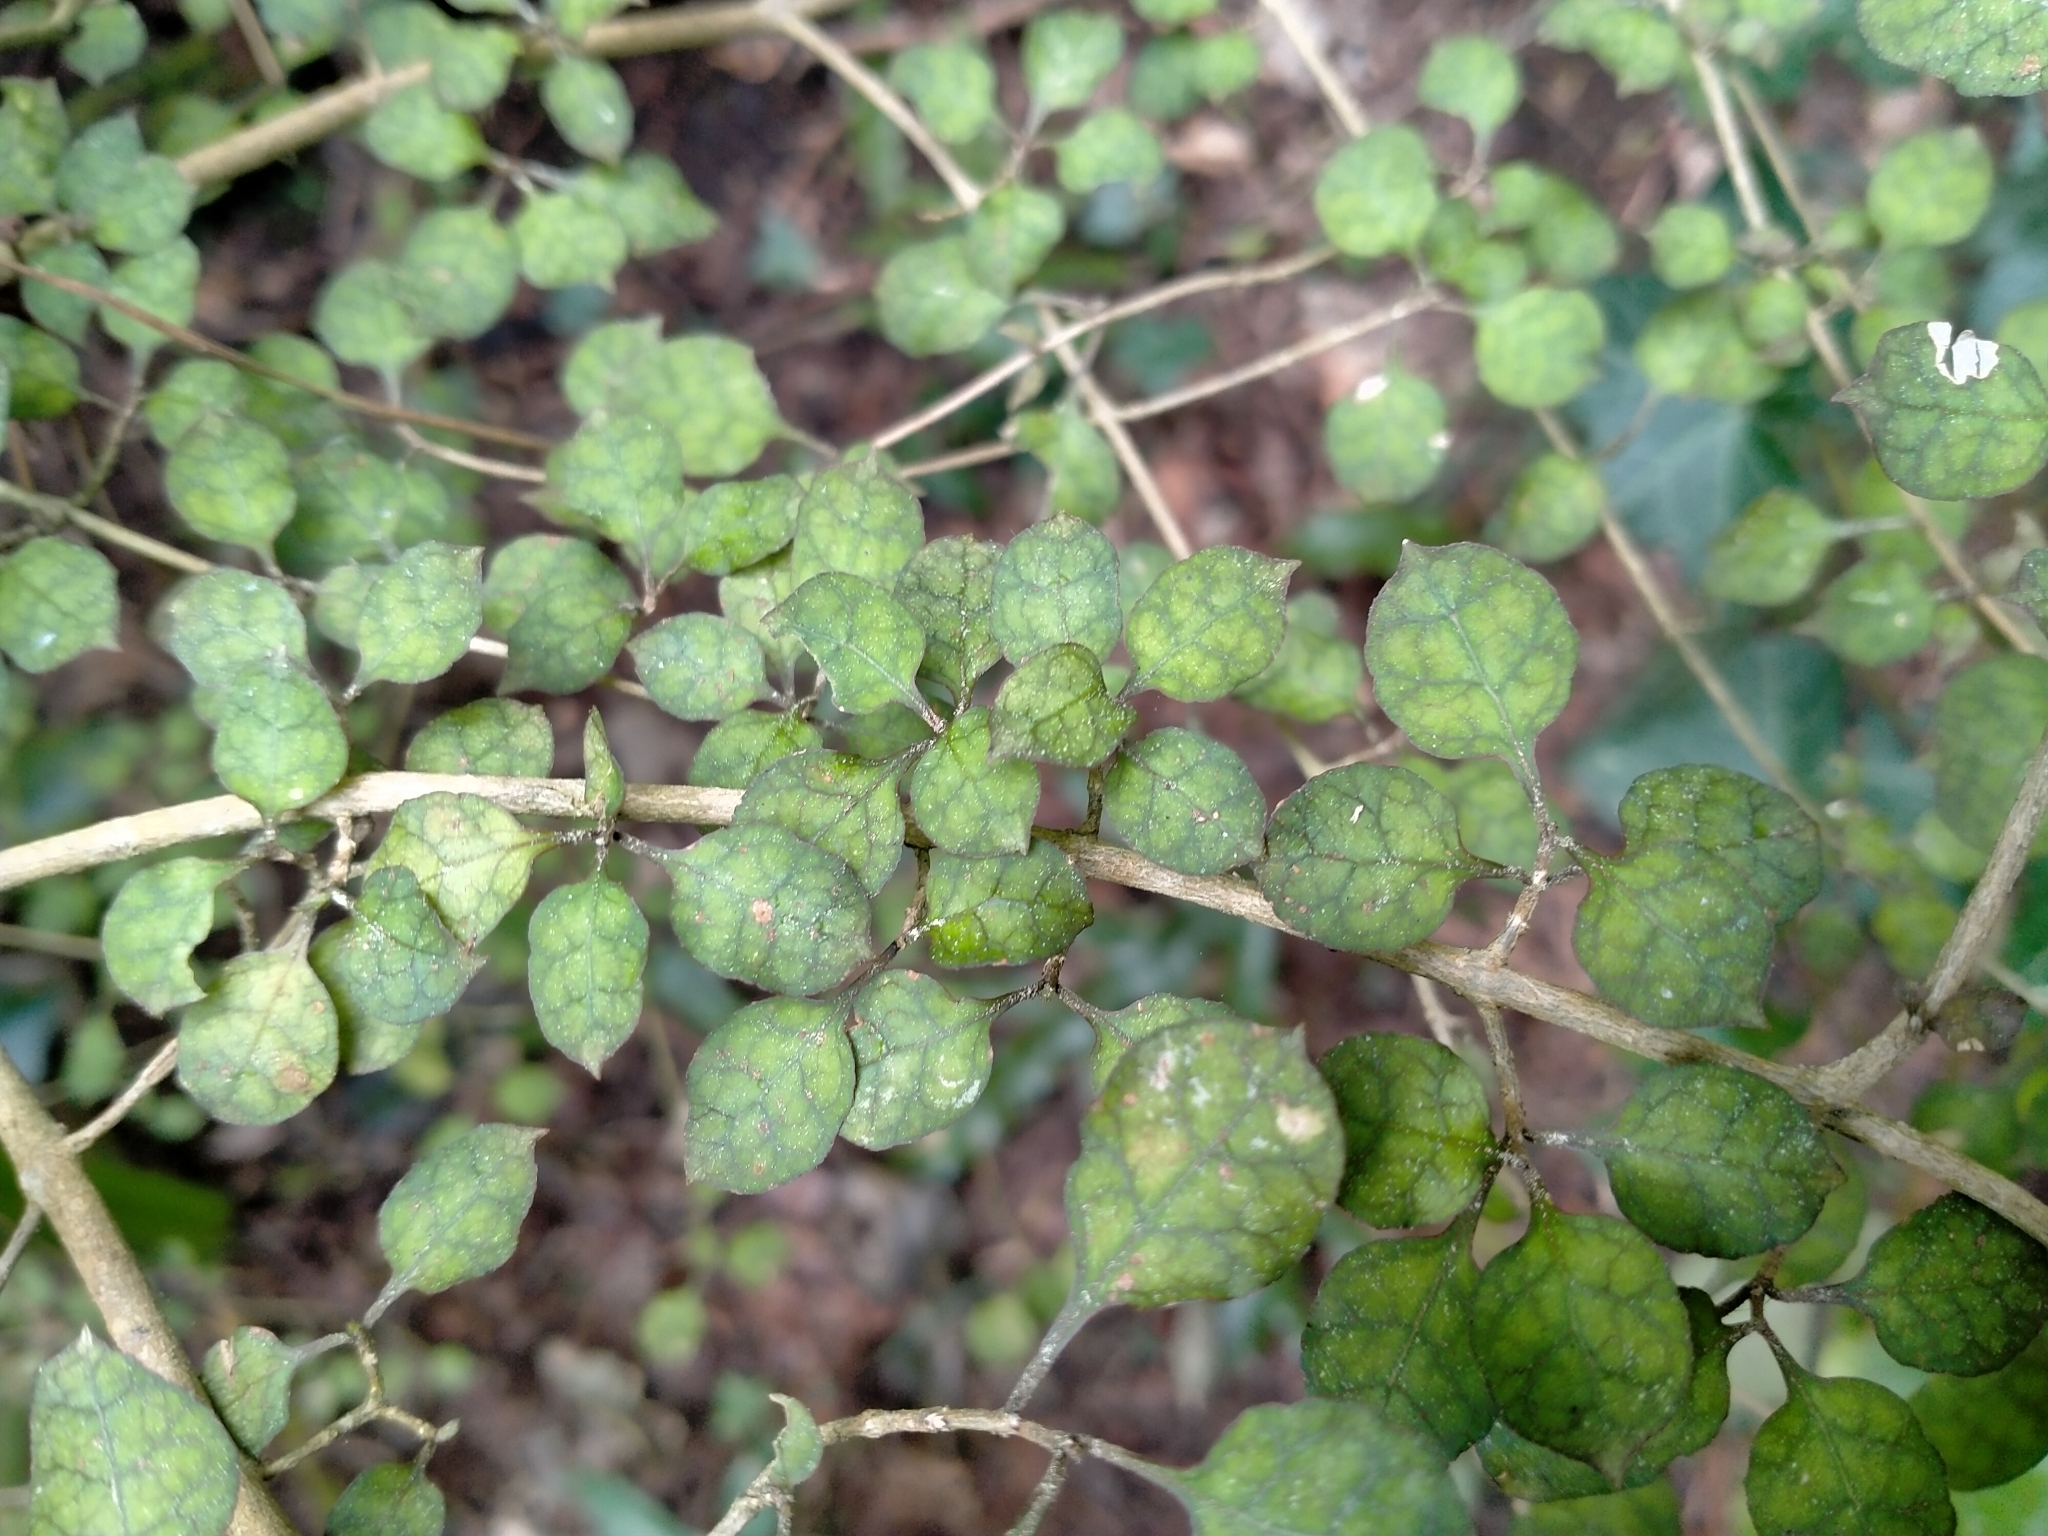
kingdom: Plantae
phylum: Tracheophyta
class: Magnoliopsida
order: Gentianales
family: Rubiaceae
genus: Coprosma
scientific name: Coprosma areolata
